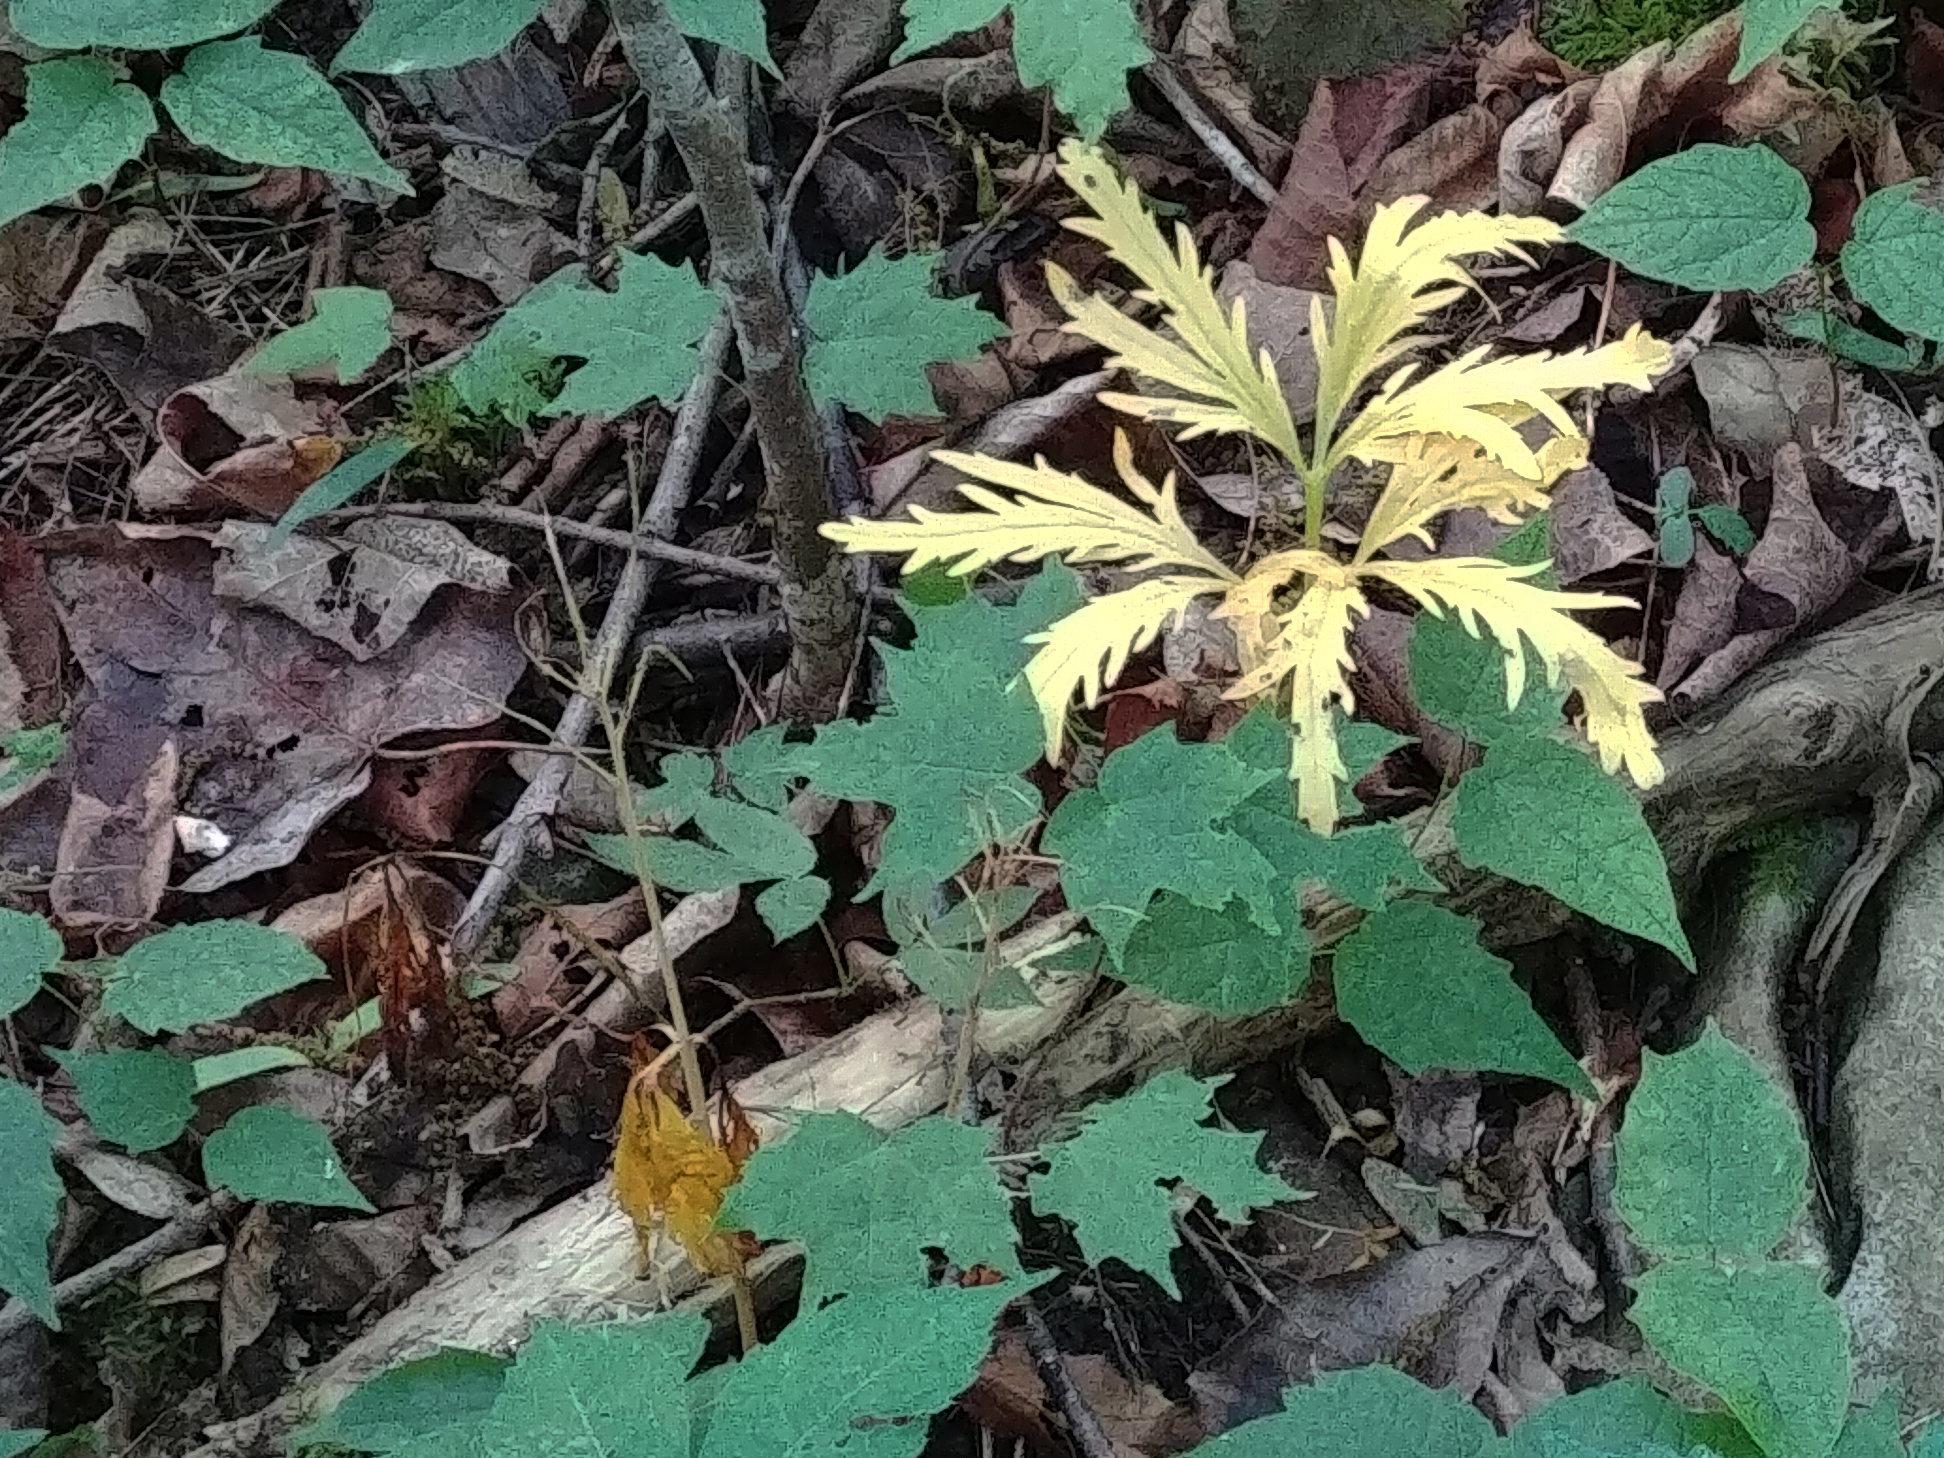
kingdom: Plantae
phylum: Tracheophyta
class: Magnoliopsida
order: Brassicales
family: Brassicaceae
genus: Cardamine
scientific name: Cardamine concatenata
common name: Cut-leaf toothcup
